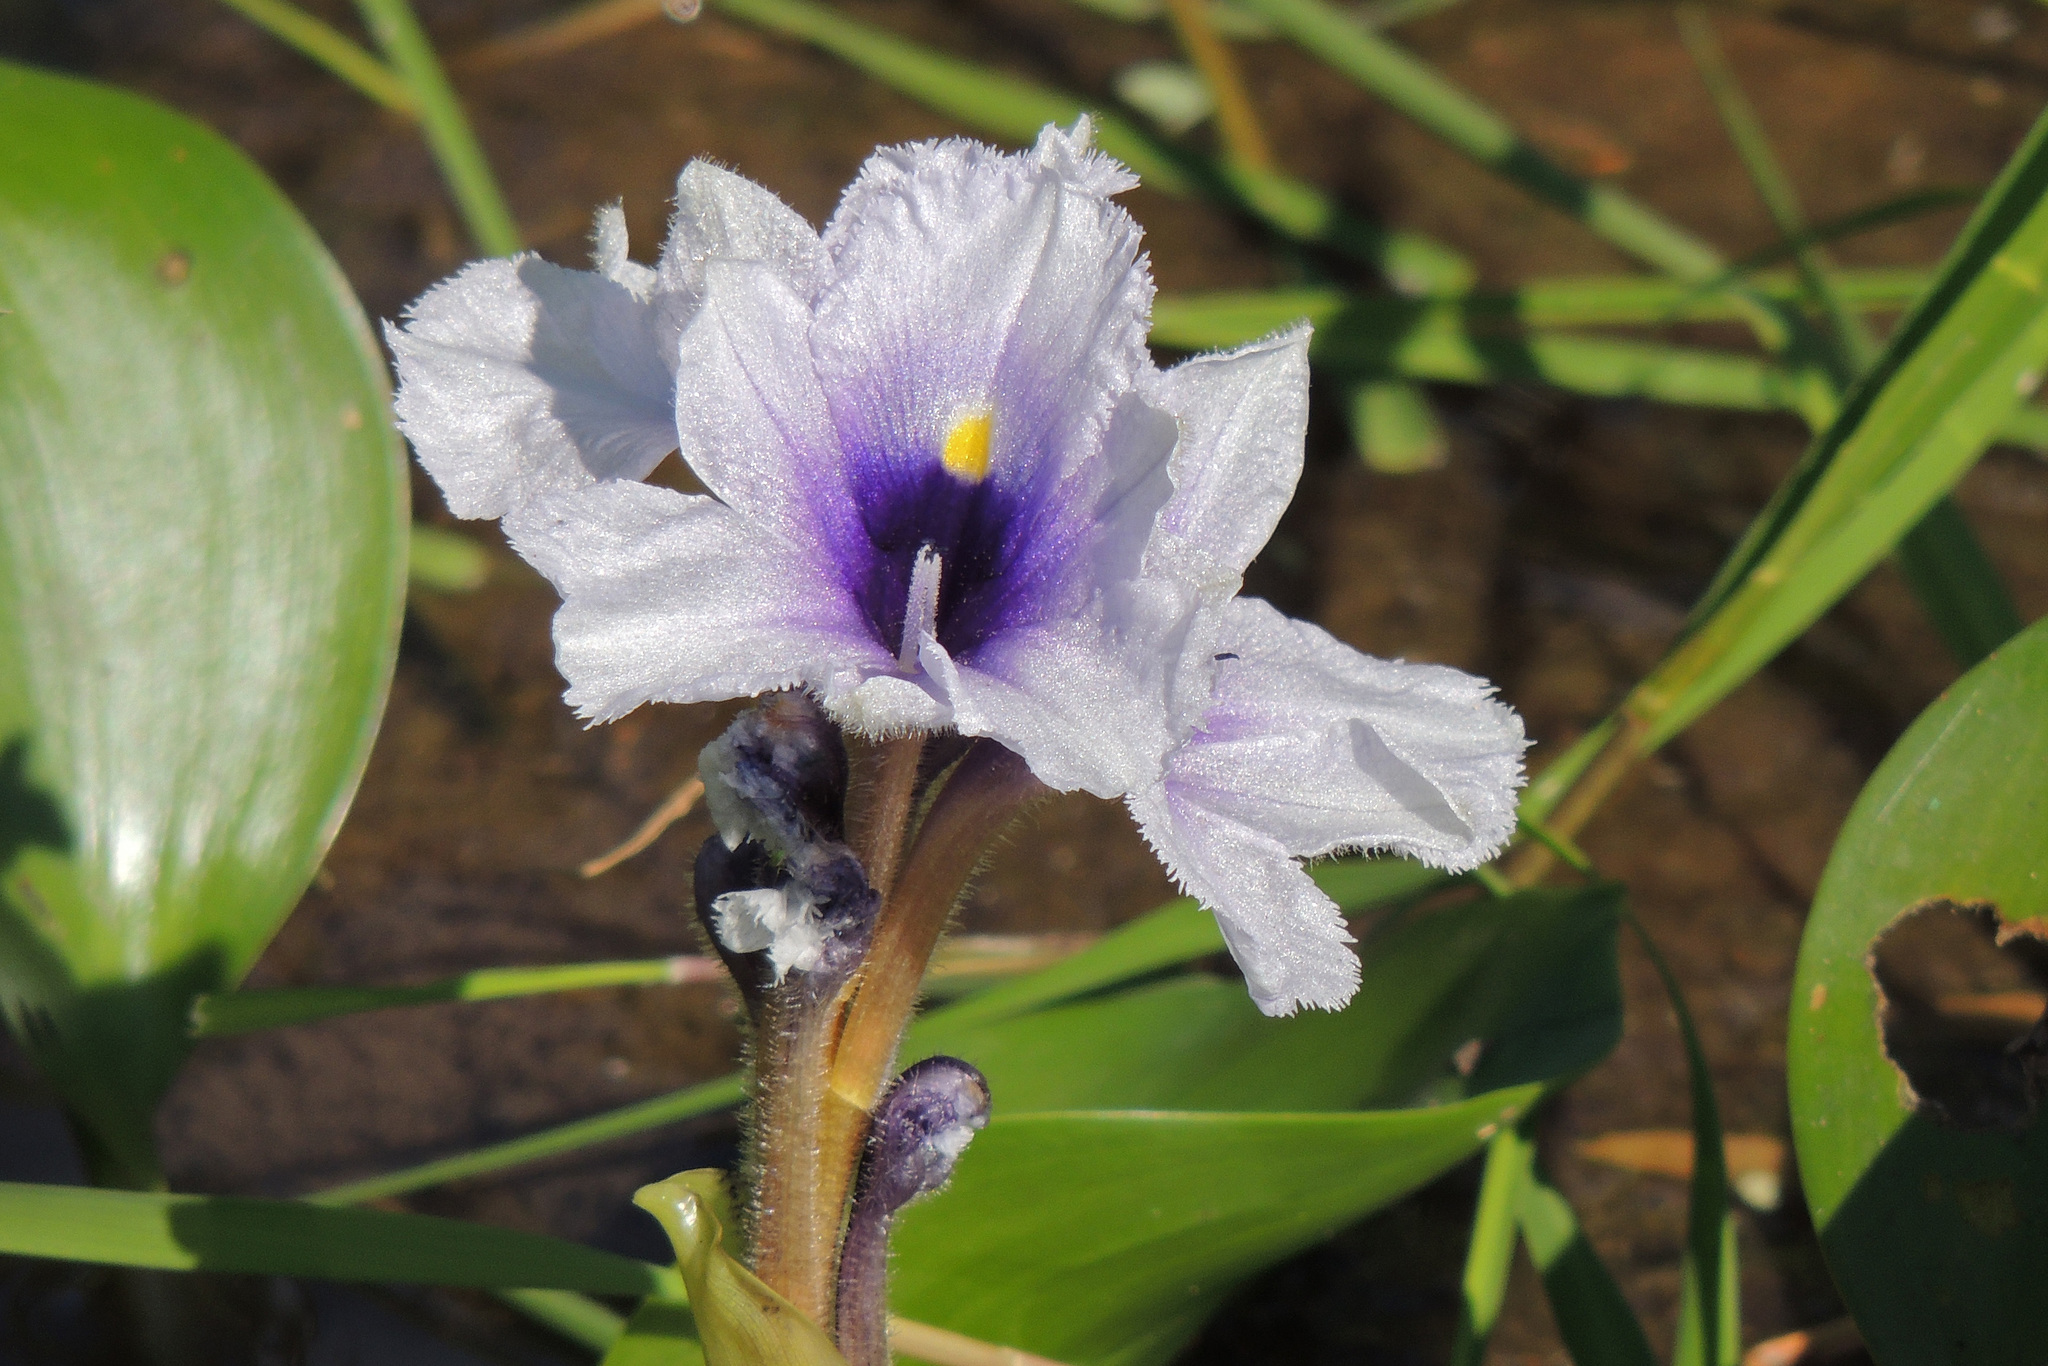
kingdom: Plantae
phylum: Tracheophyta
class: Liliopsida
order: Commelinales
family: Pontederiaceae
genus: Pontederia
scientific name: Pontederia azurea
